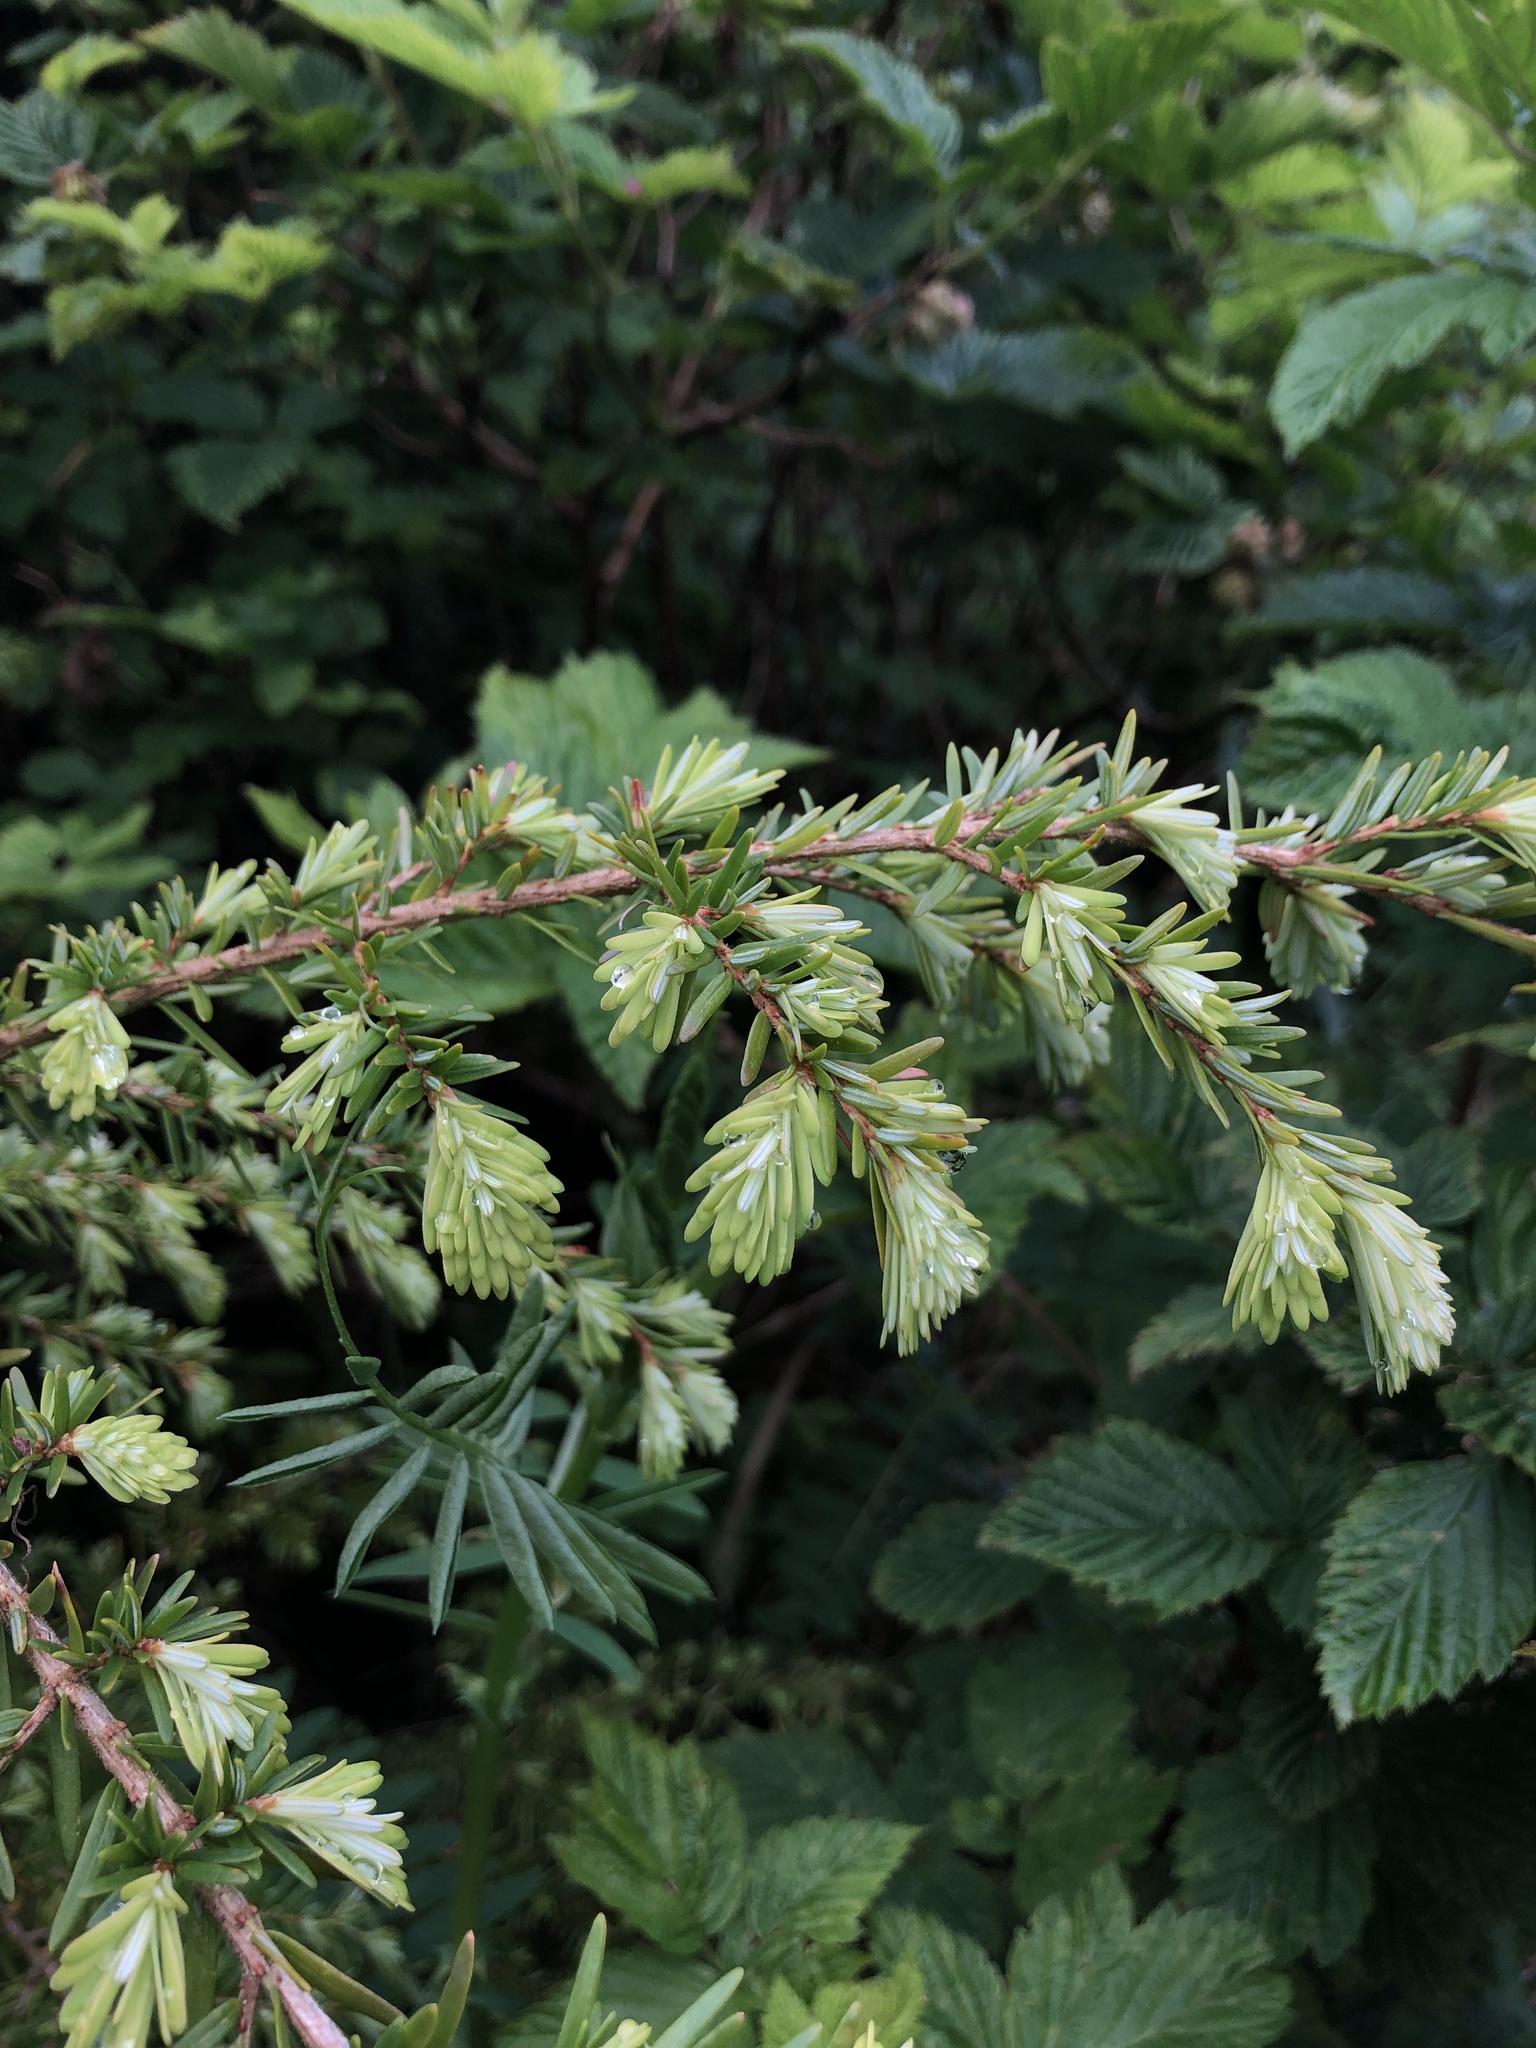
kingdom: Plantae
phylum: Tracheophyta
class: Pinopsida
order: Pinales
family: Pinaceae
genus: Tsuga
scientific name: Tsuga heterophylla
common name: Western hemlock
